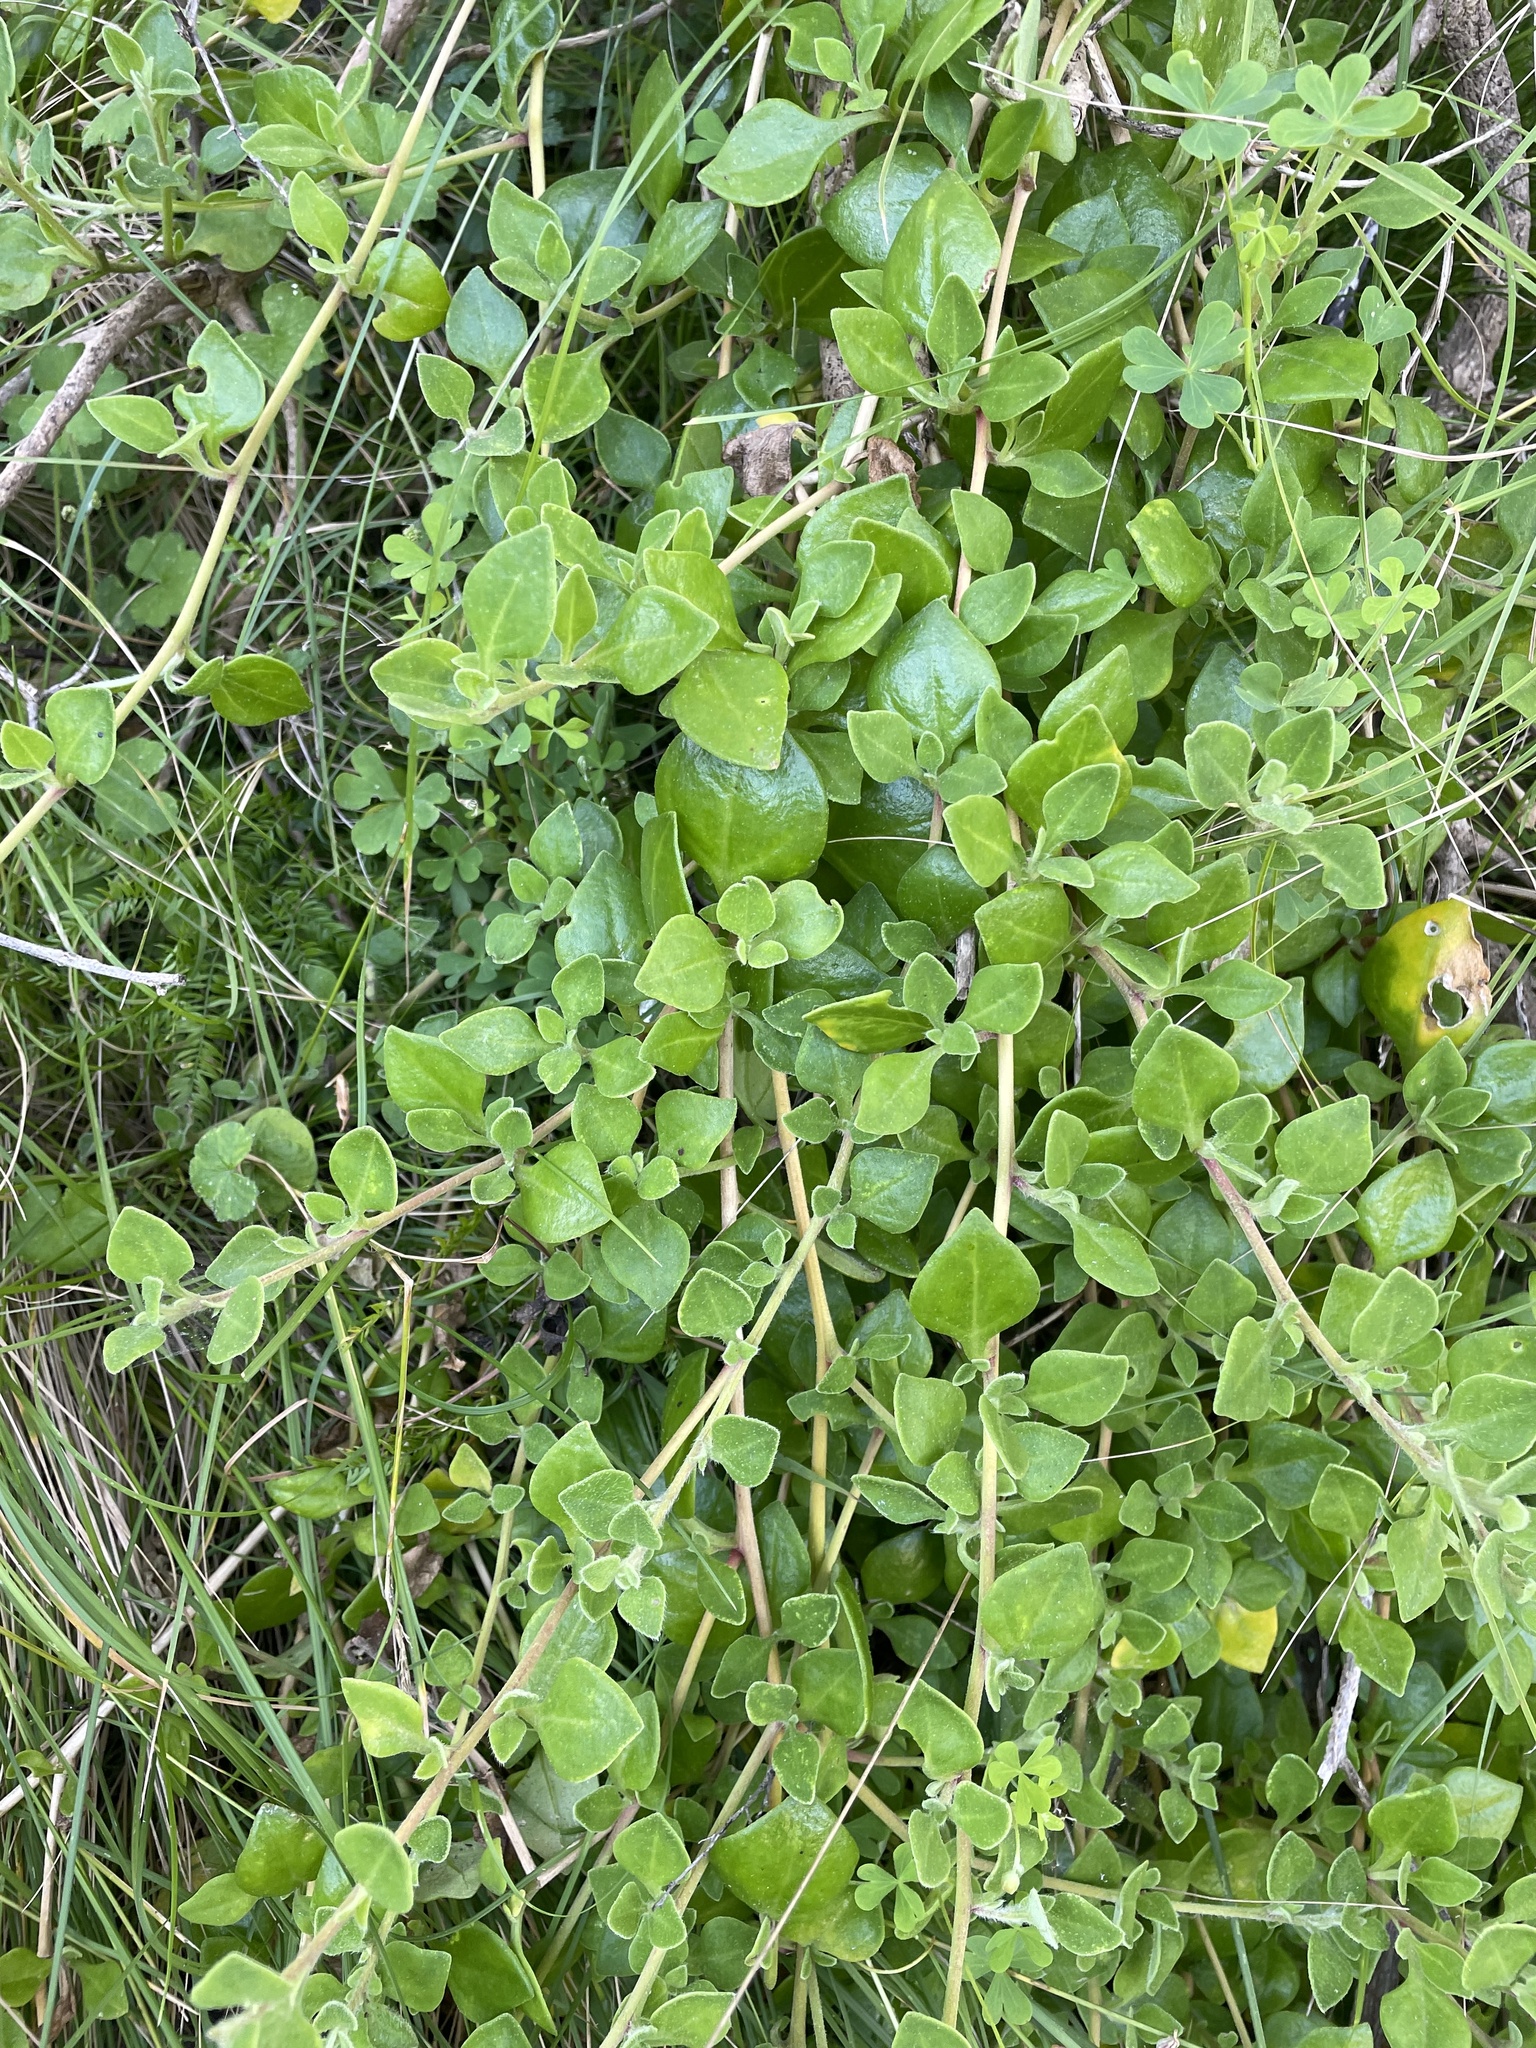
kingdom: Plantae
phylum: Tracheophyta
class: Magnoliopsida
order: Caryophyllales
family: Aizoaceae
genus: Tetragonia
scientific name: Tetragonia implexicoma
